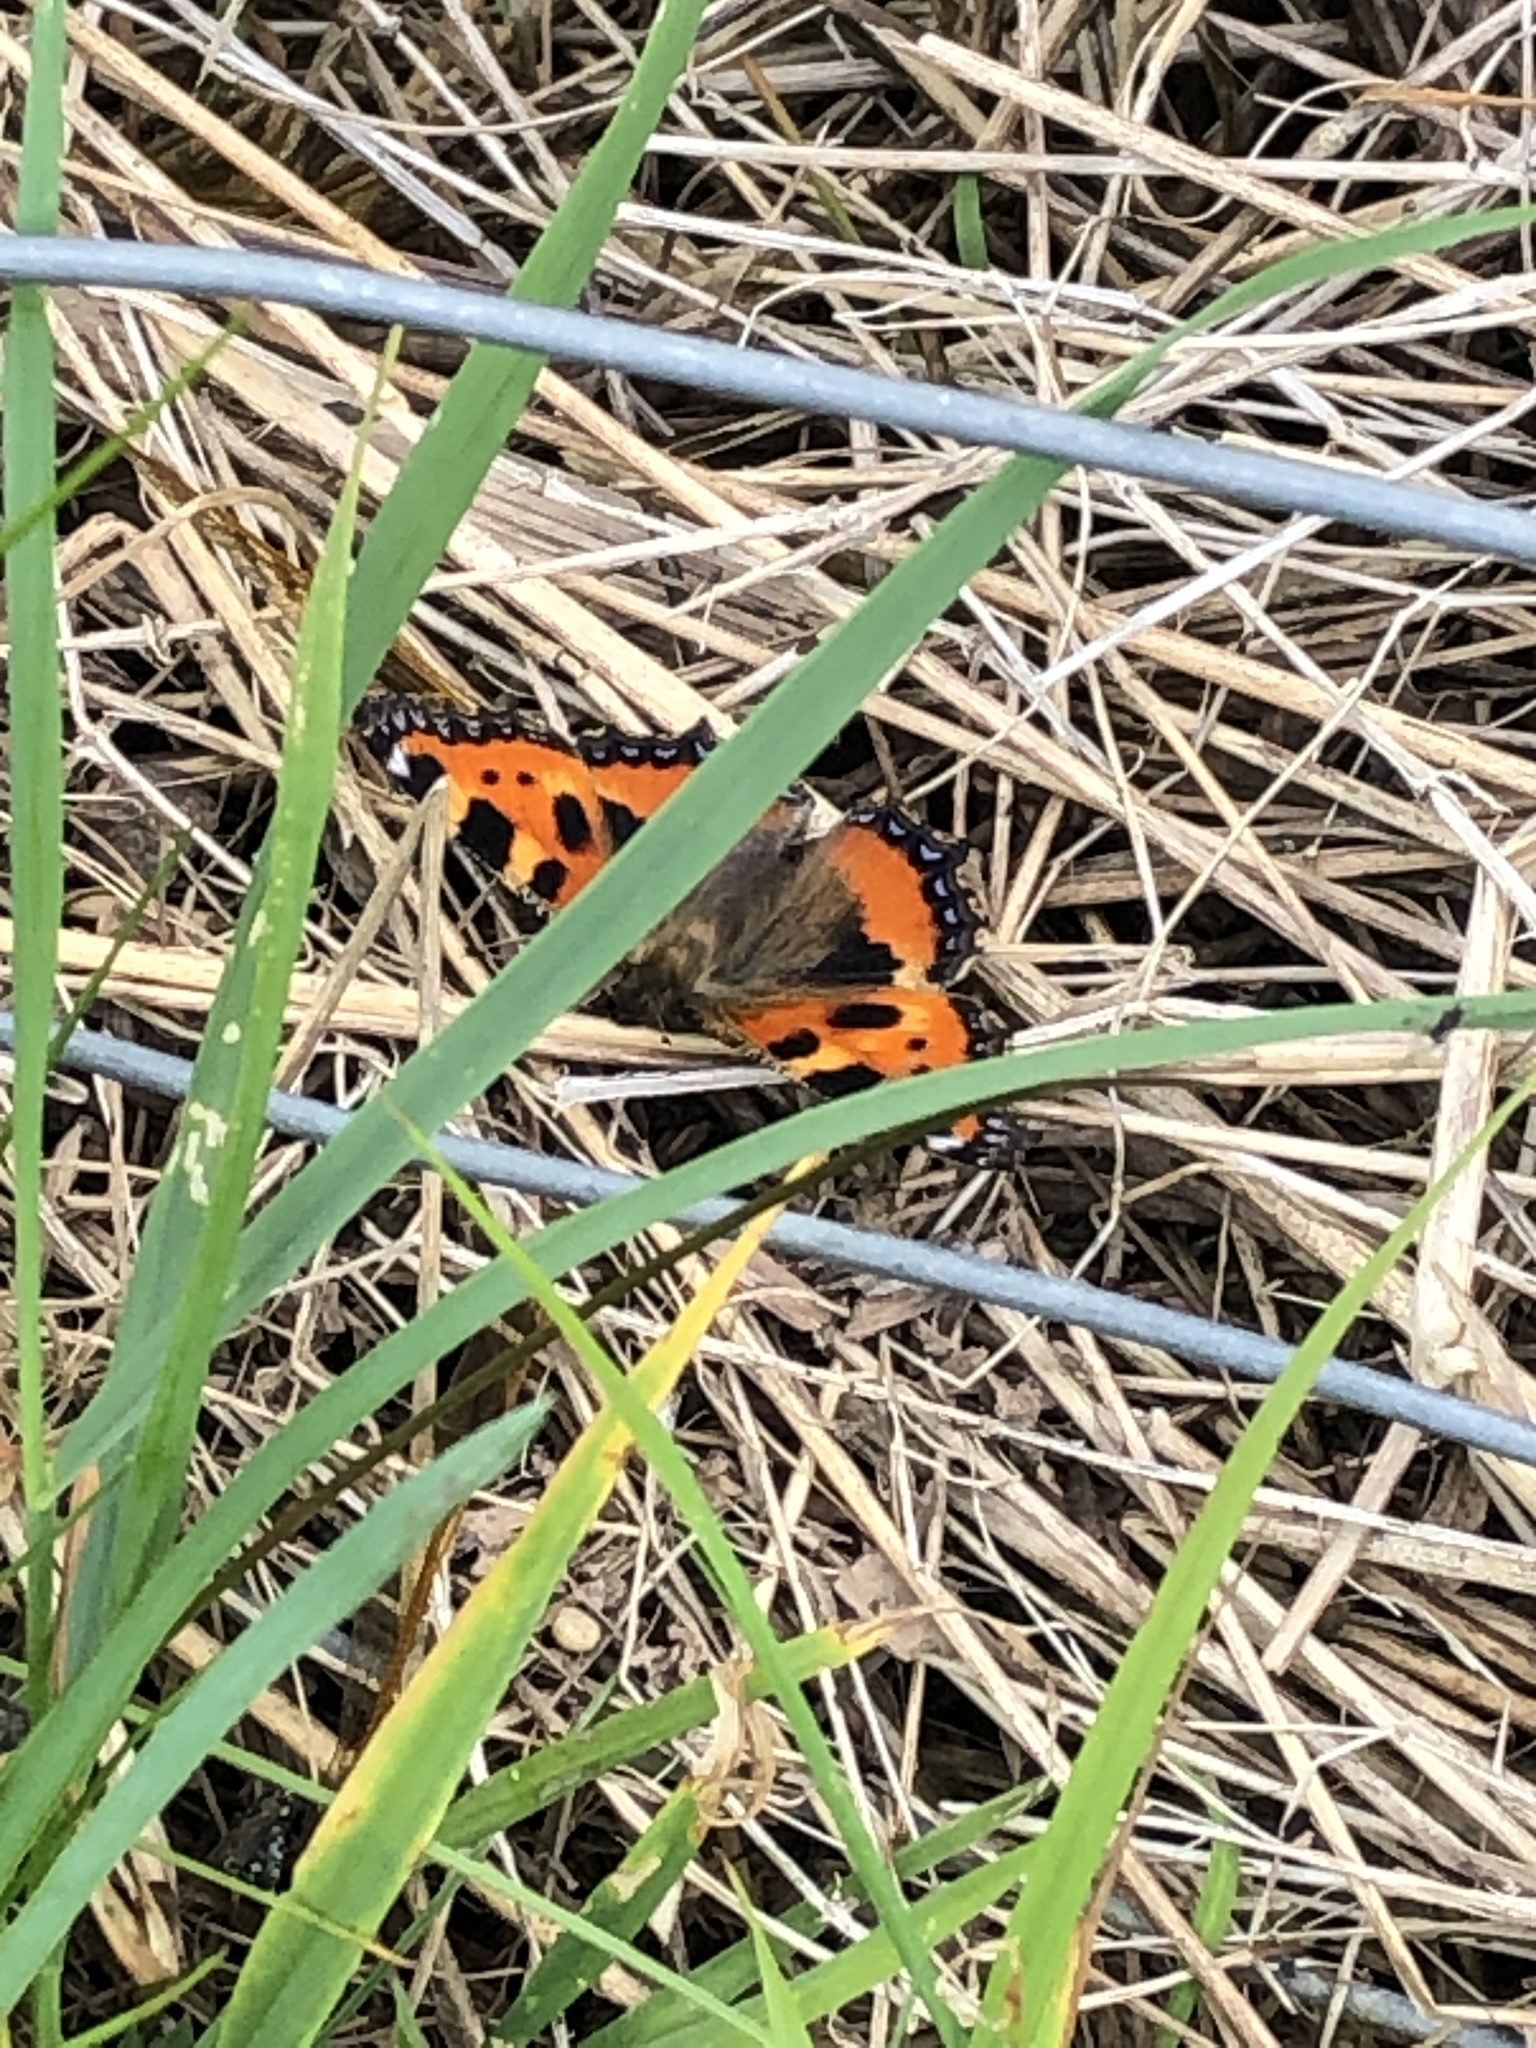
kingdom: Animalia
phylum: Arthropoda
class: Insecta
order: Lepidoptera
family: Nymphalidae
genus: Aglais
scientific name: Aglais urticae
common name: Small tortoiseshell
